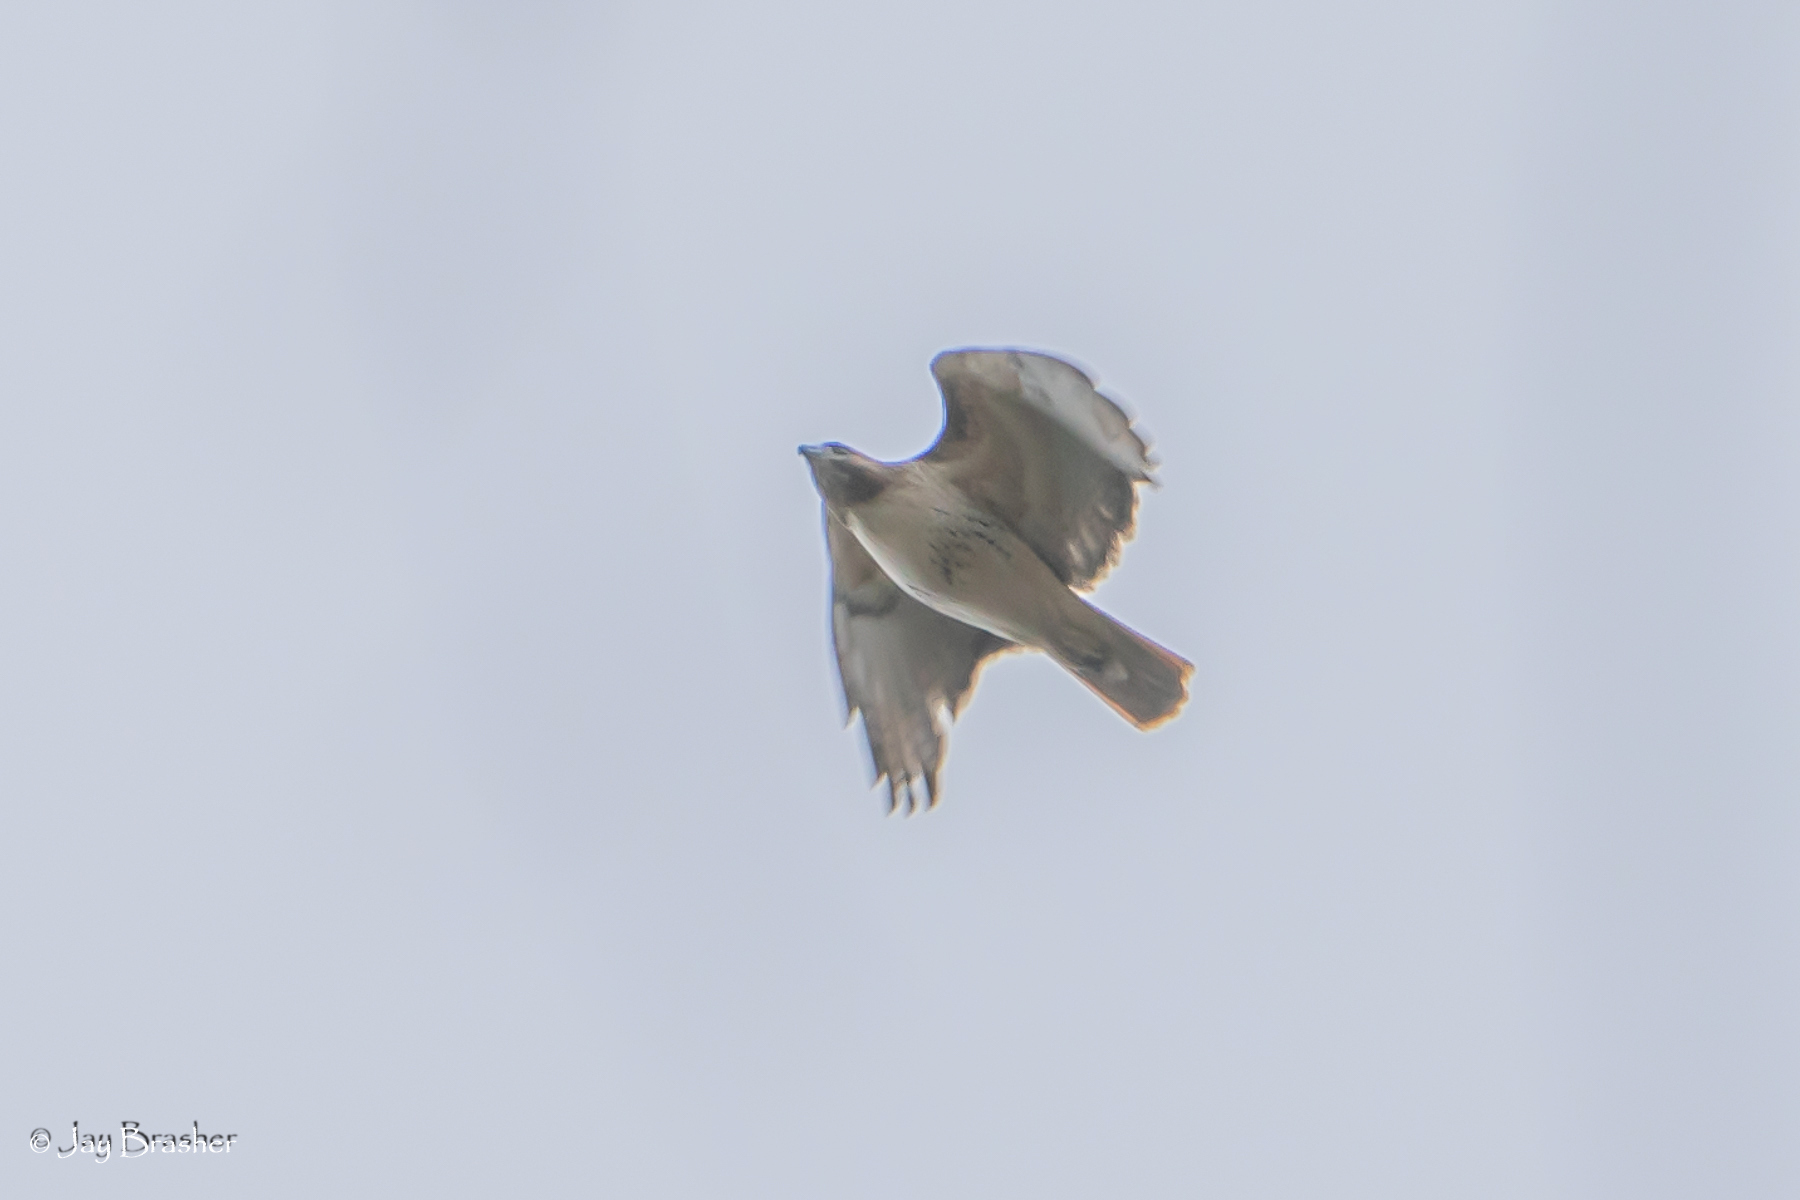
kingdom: Animalia
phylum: Chordata
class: Aves
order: Accipitriformes
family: Accipitridae
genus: Buteo
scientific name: Buteo jamaicensis
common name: Red-tailed hawk
